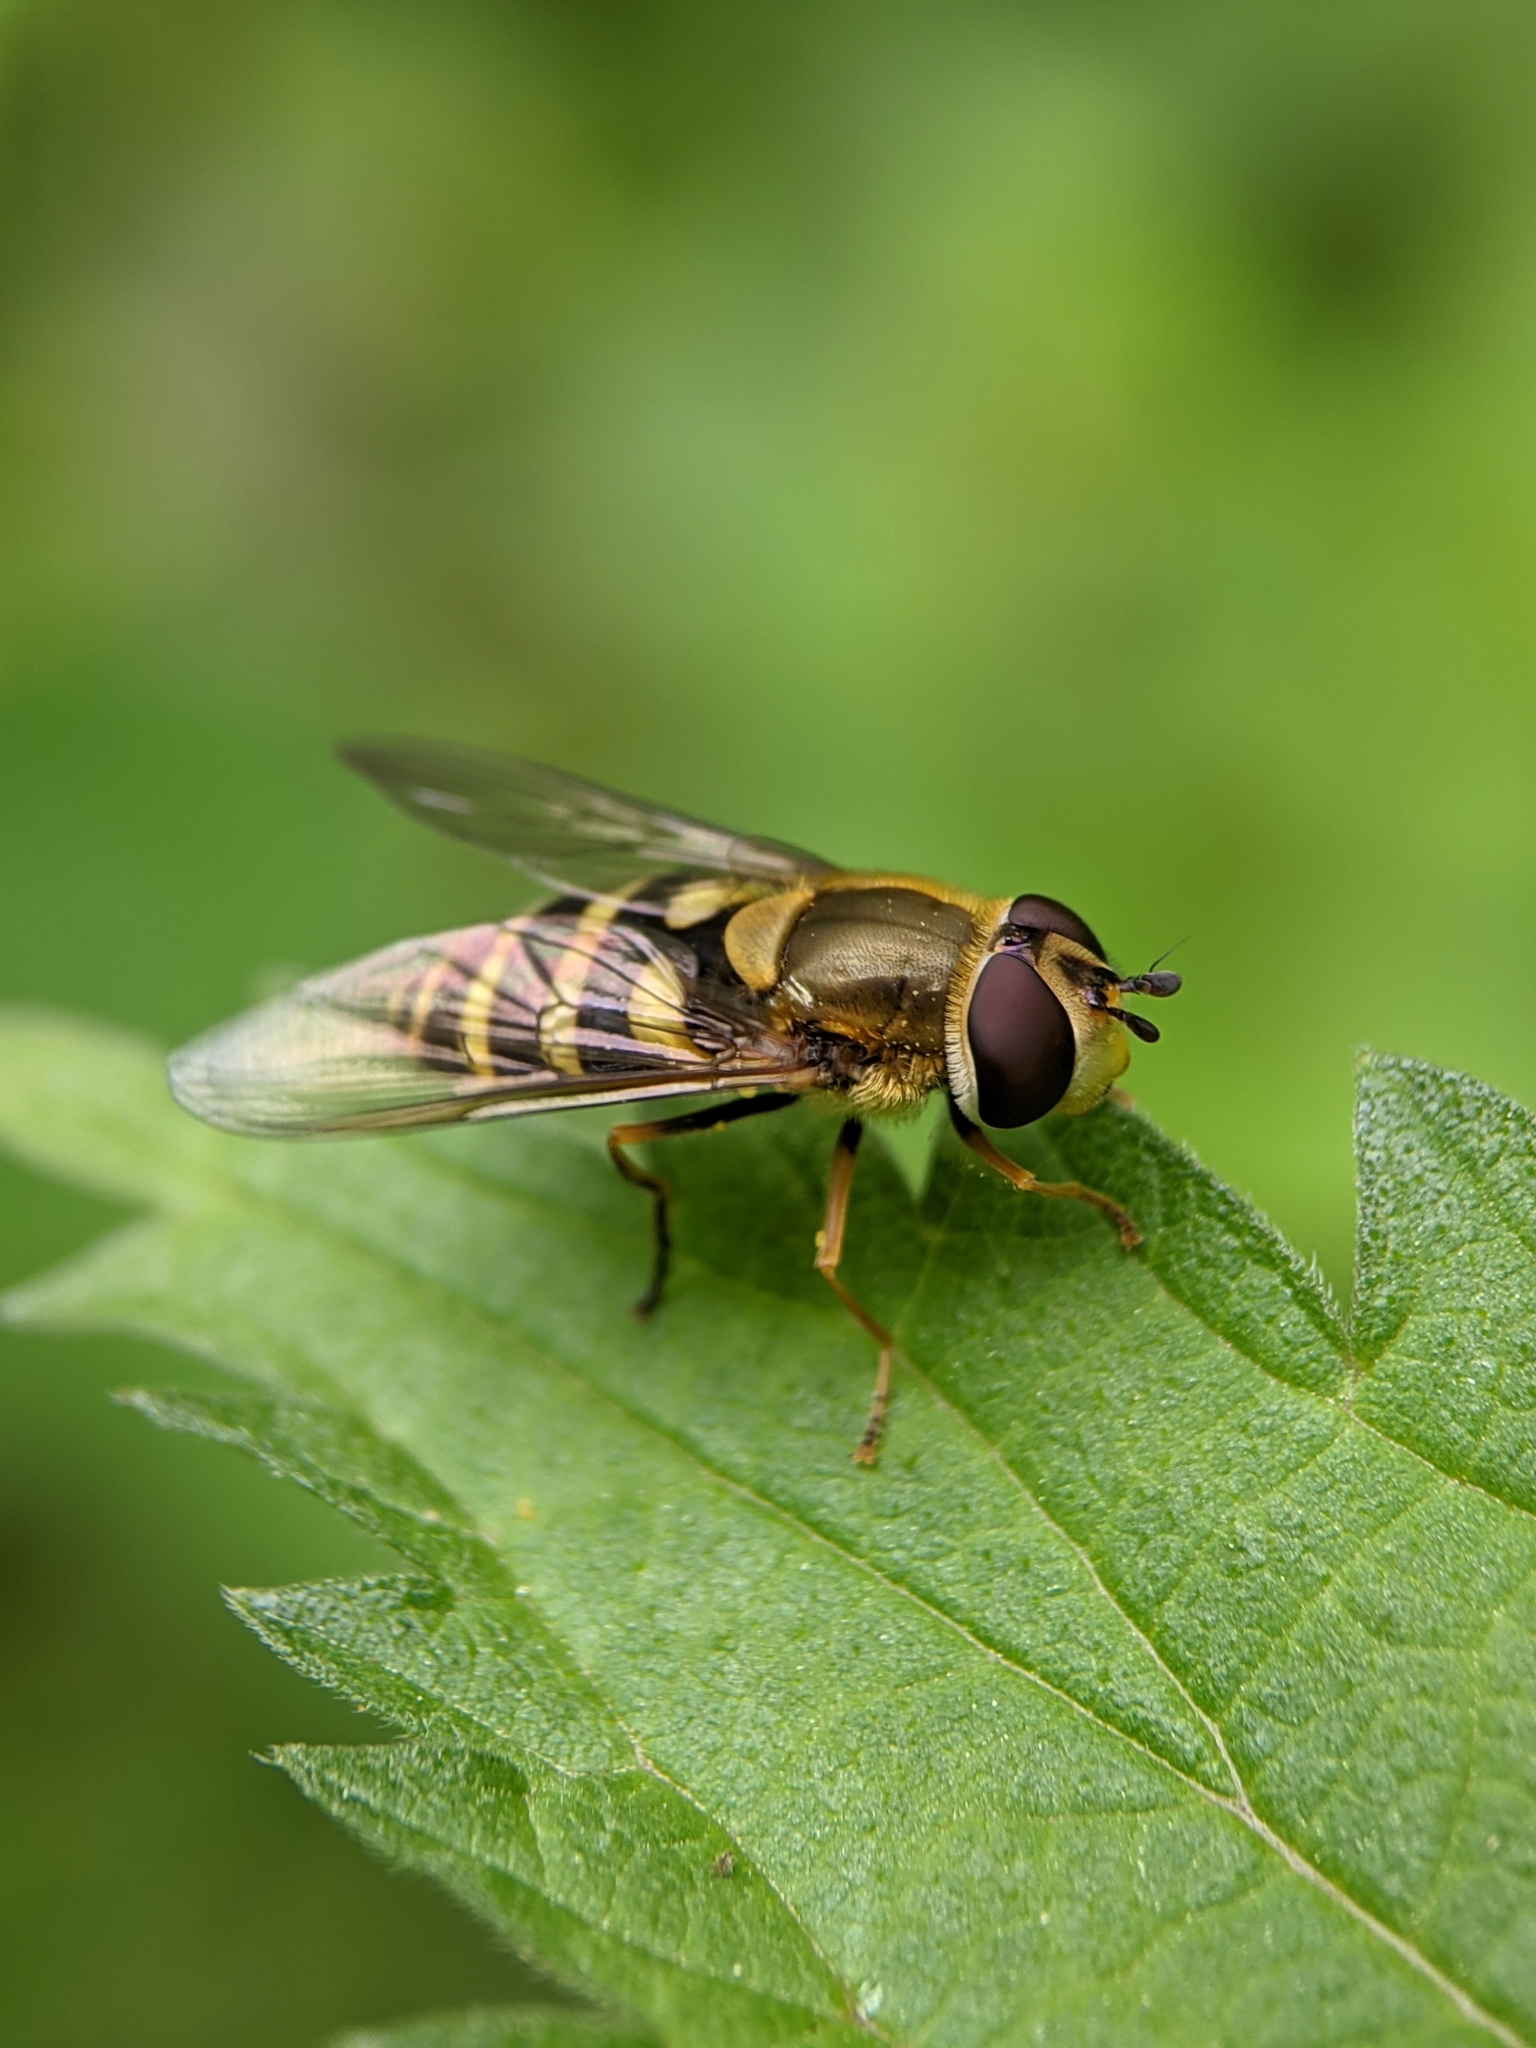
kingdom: Animalia
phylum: Arthropoda
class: Insecta
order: Diptera
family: Syrphidae
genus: Syrphus
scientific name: Syrphus vitripennis
